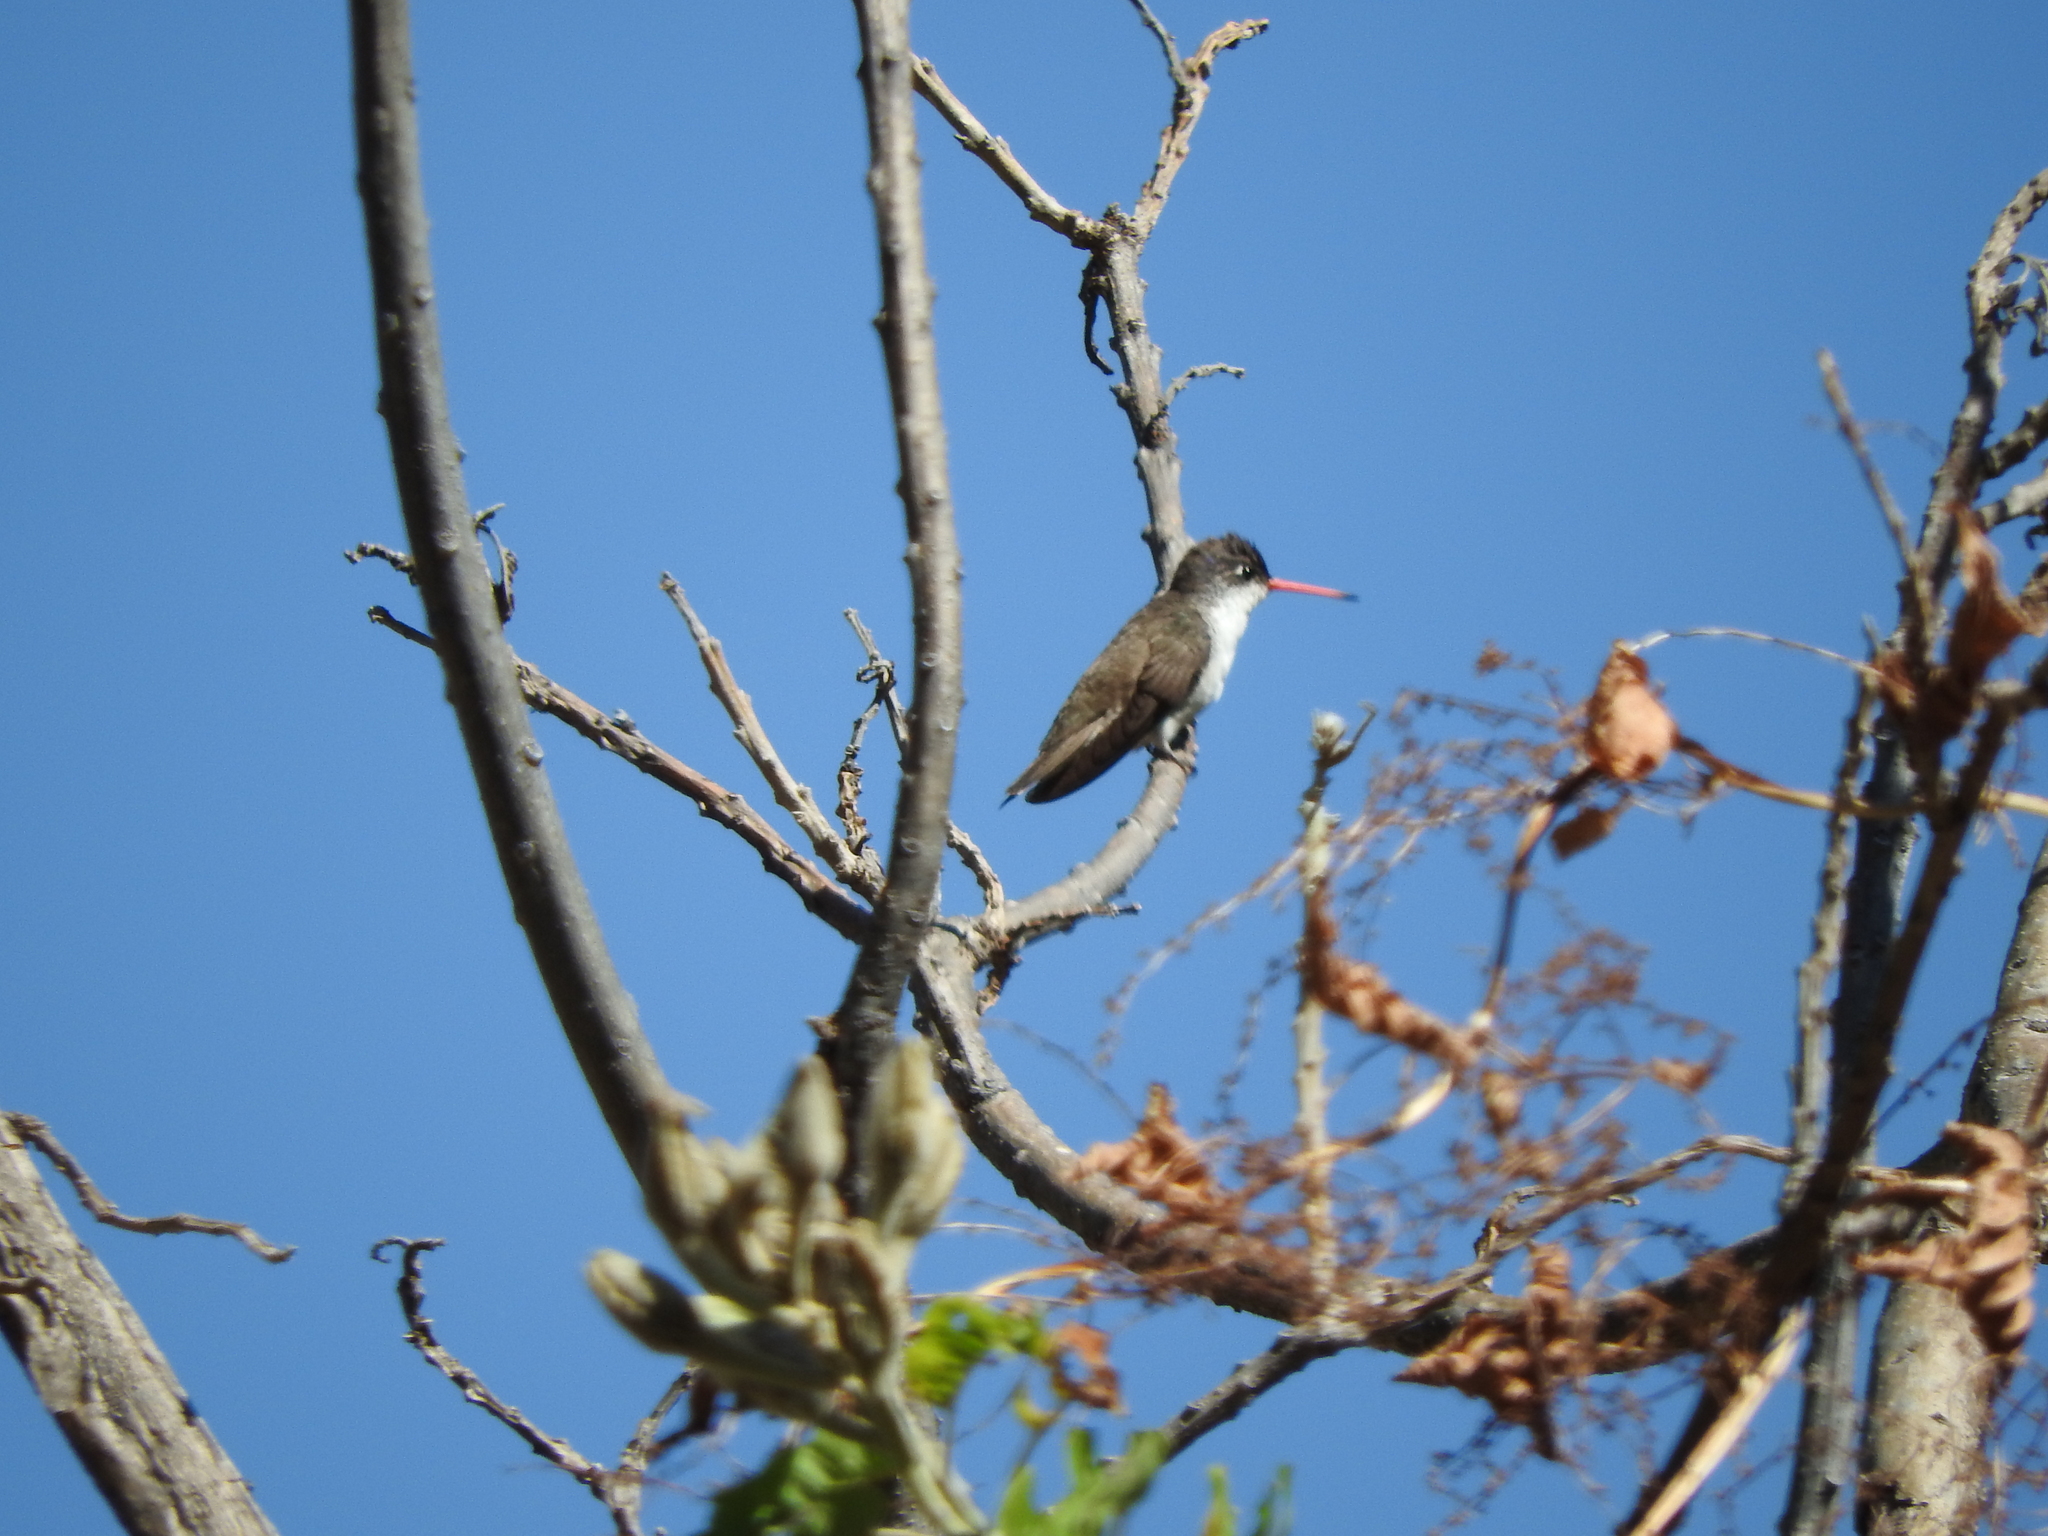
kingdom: Animalia
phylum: Chordata
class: Aves
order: Apodiformes
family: Trochilidae
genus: Leucolia
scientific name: Leucolia violiceps
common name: Violet-crowned hummingbird
